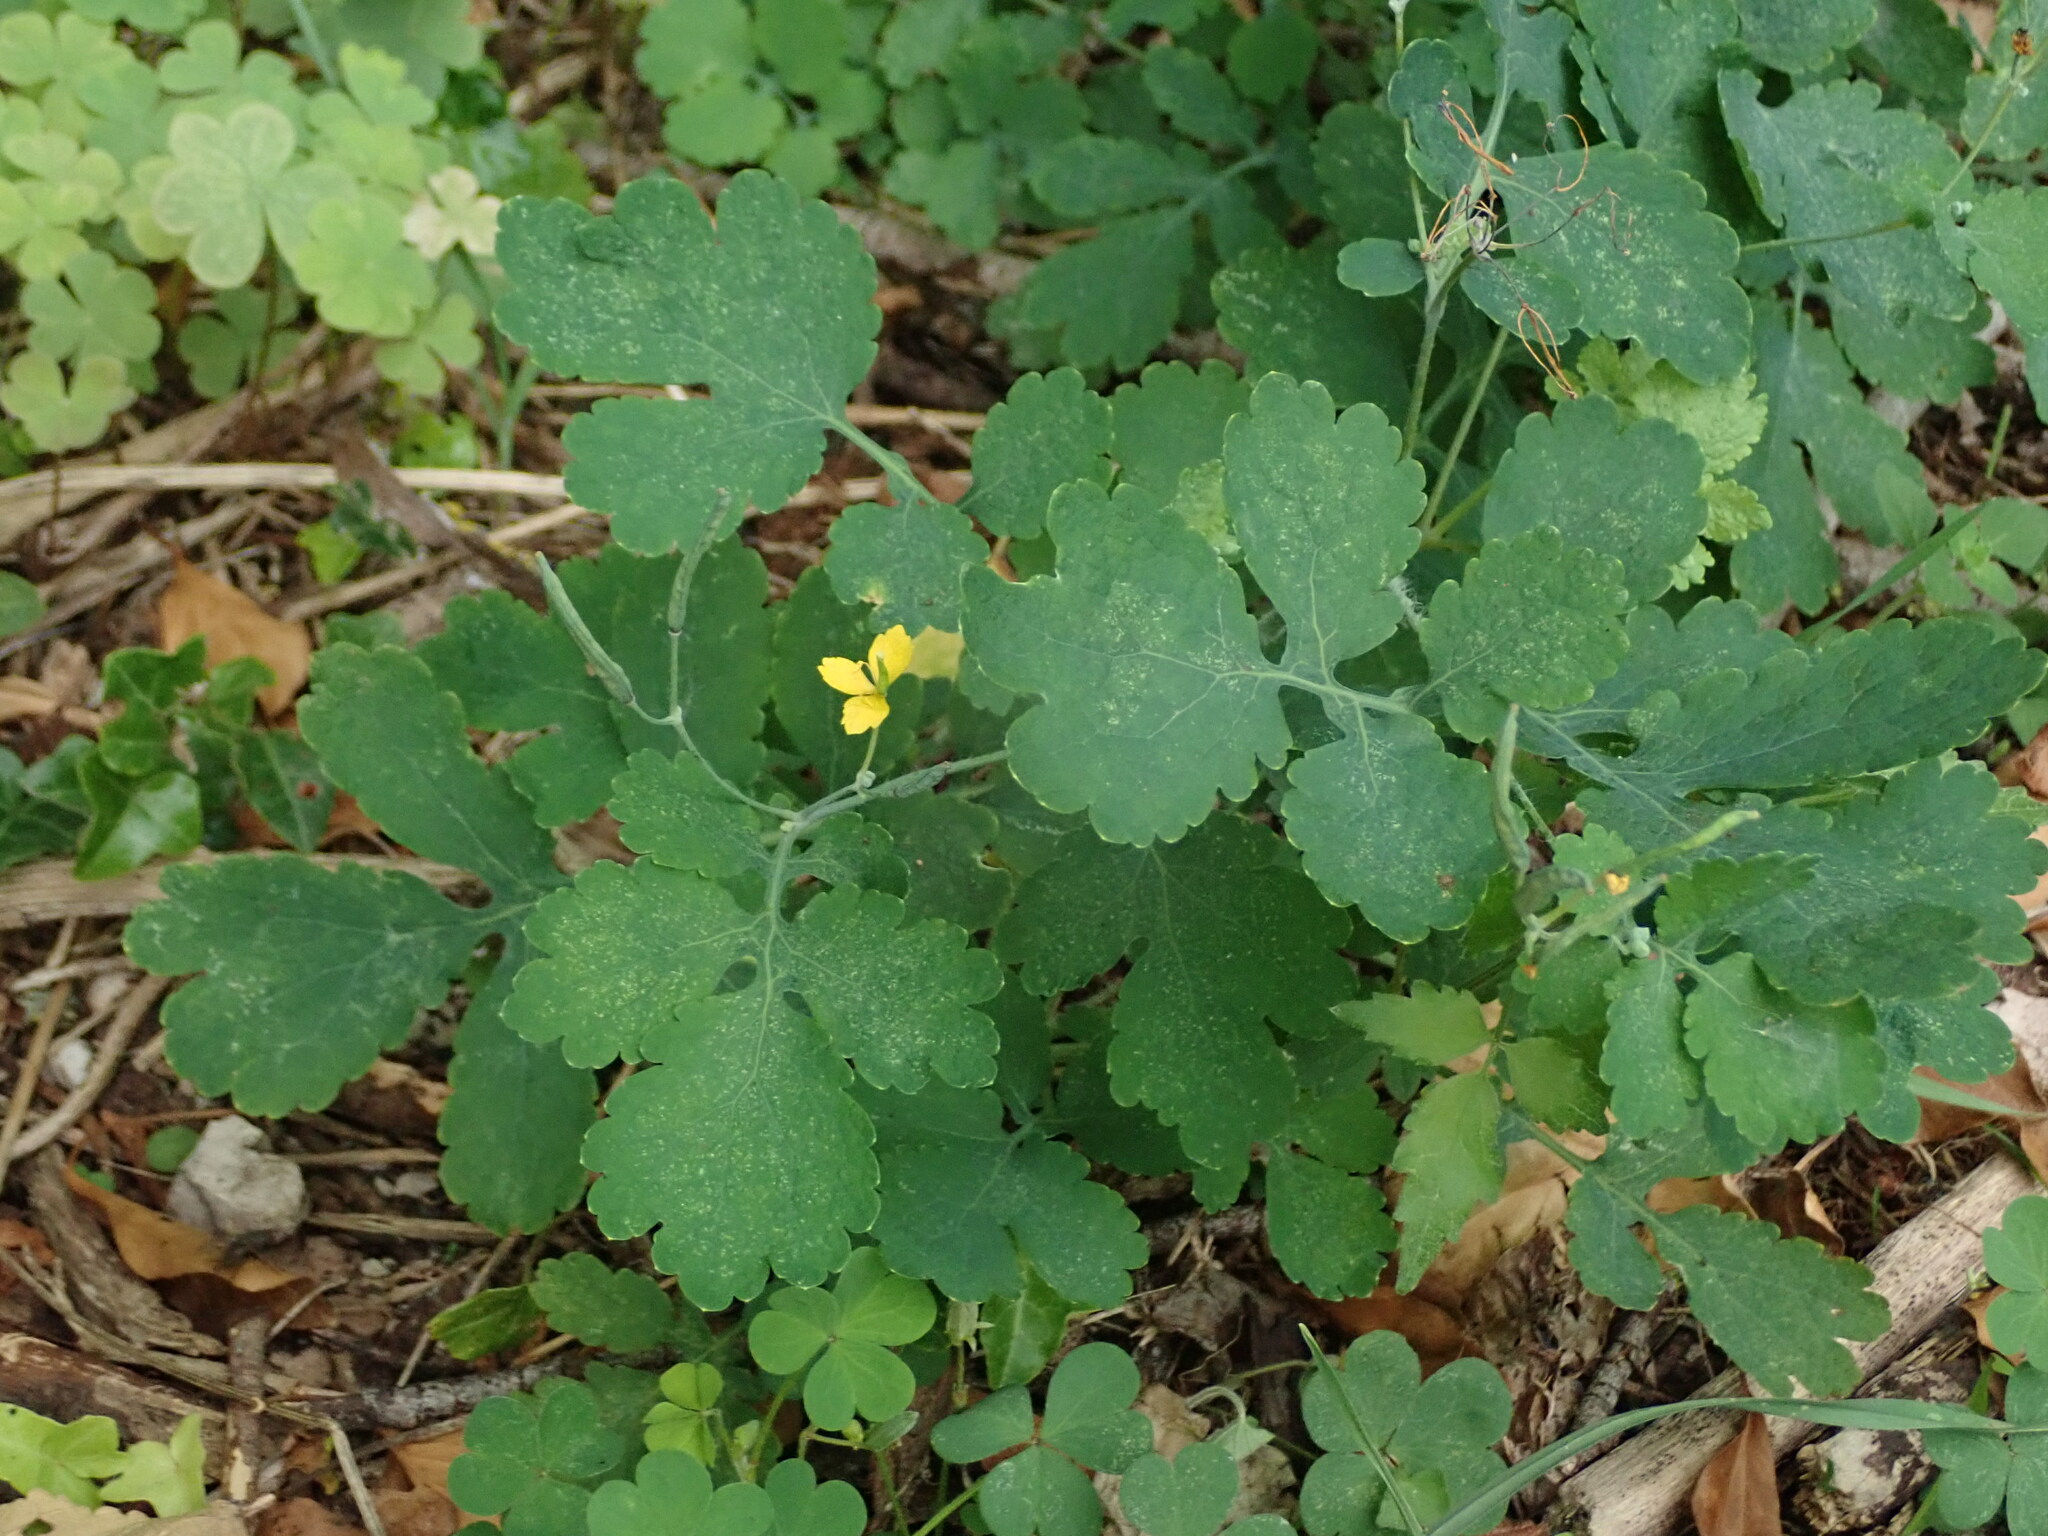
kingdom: Plantae
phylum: Tracheophyta
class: Magnoliopsida
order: Ranunculales
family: Papaveraceae
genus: Chelidonium
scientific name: Chelidonium majus
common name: Greater celandine
